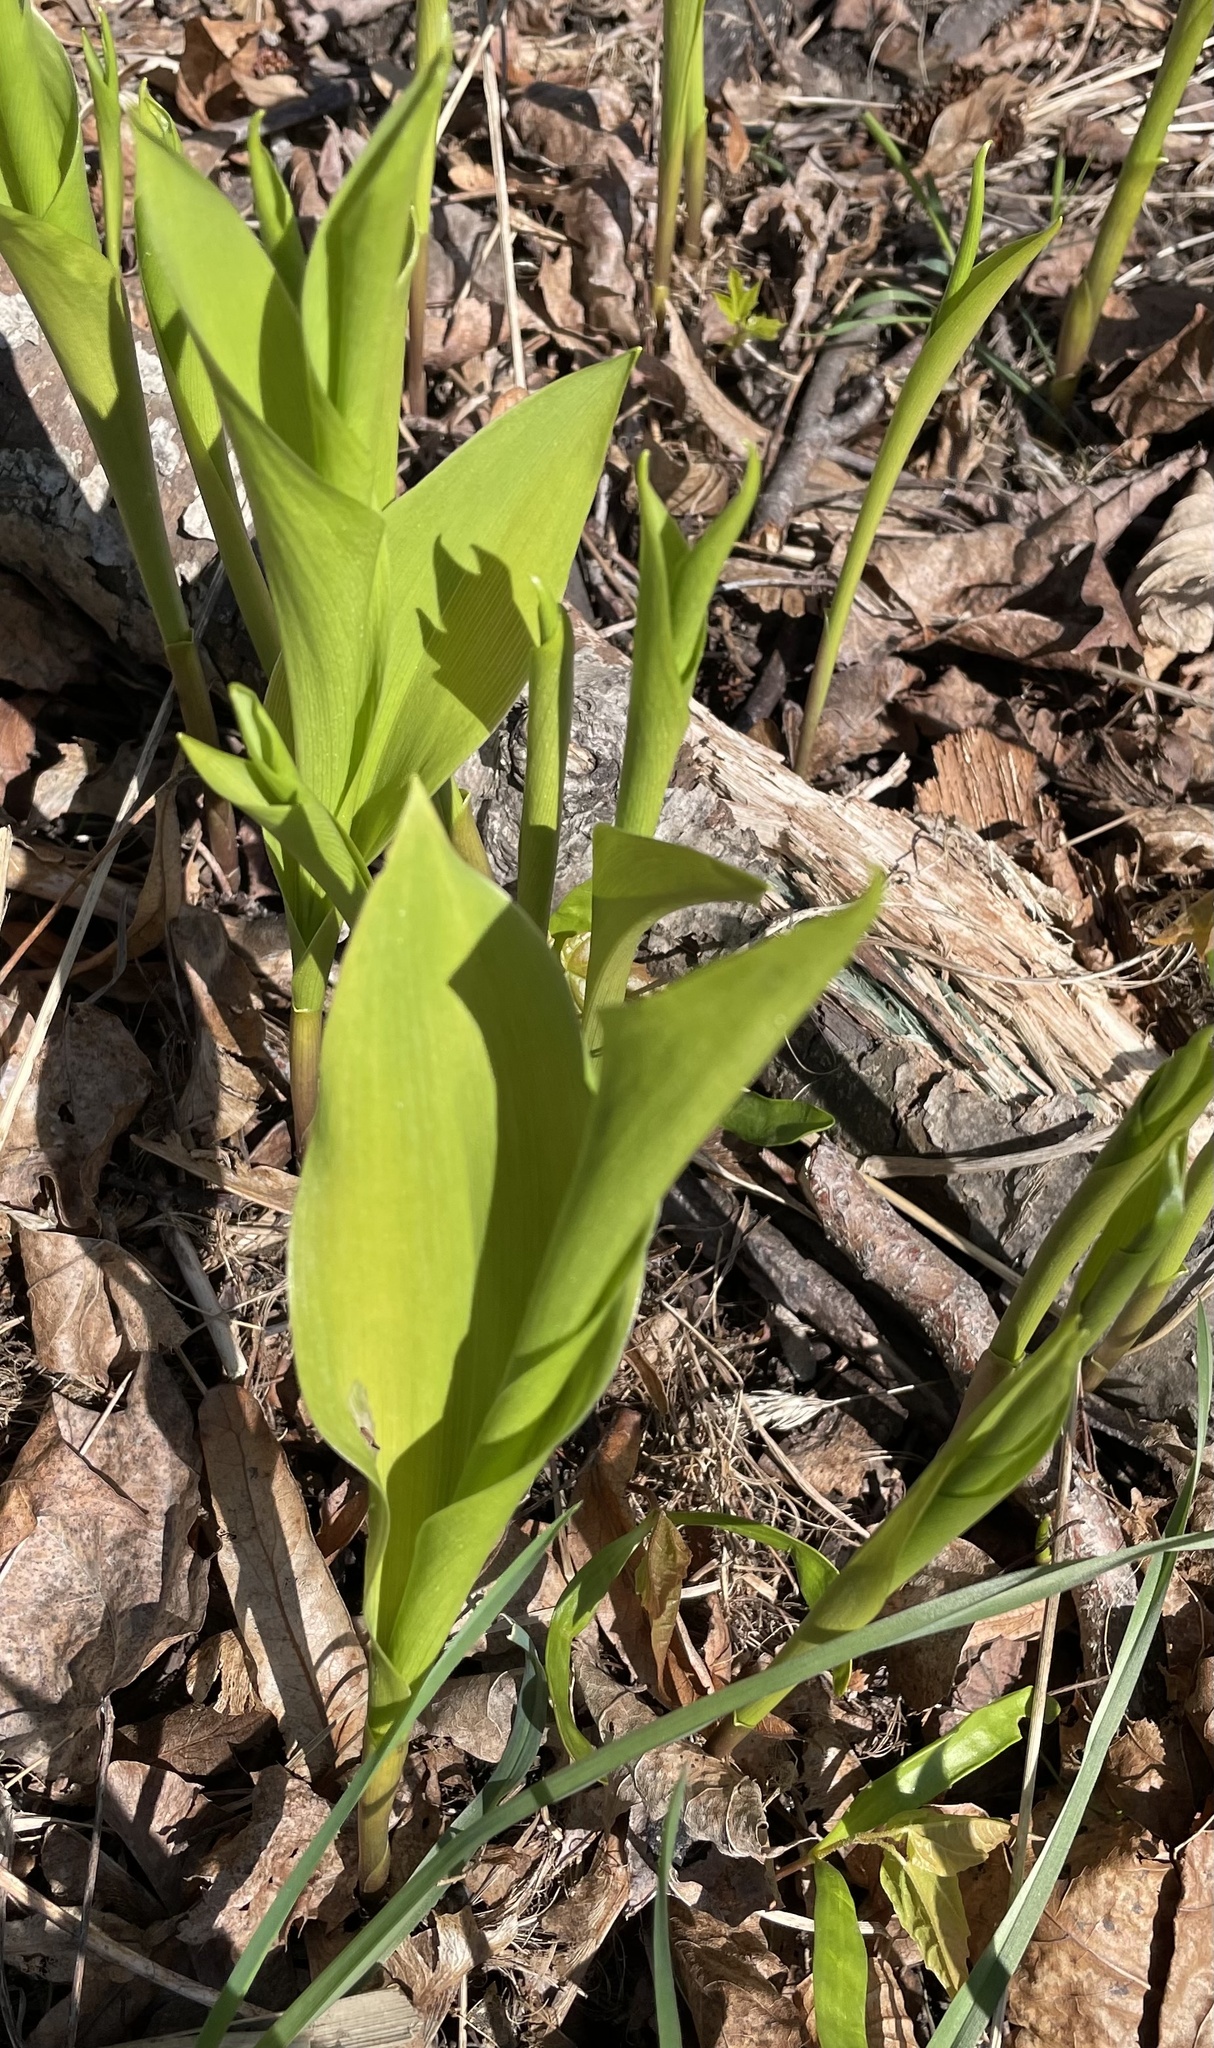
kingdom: Plantae
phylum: Tracheophyta
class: Liliopsida
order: Asparagales
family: Asparagaceae
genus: Convallaria
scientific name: Convallaria majalis
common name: Lily-of-the-valley
